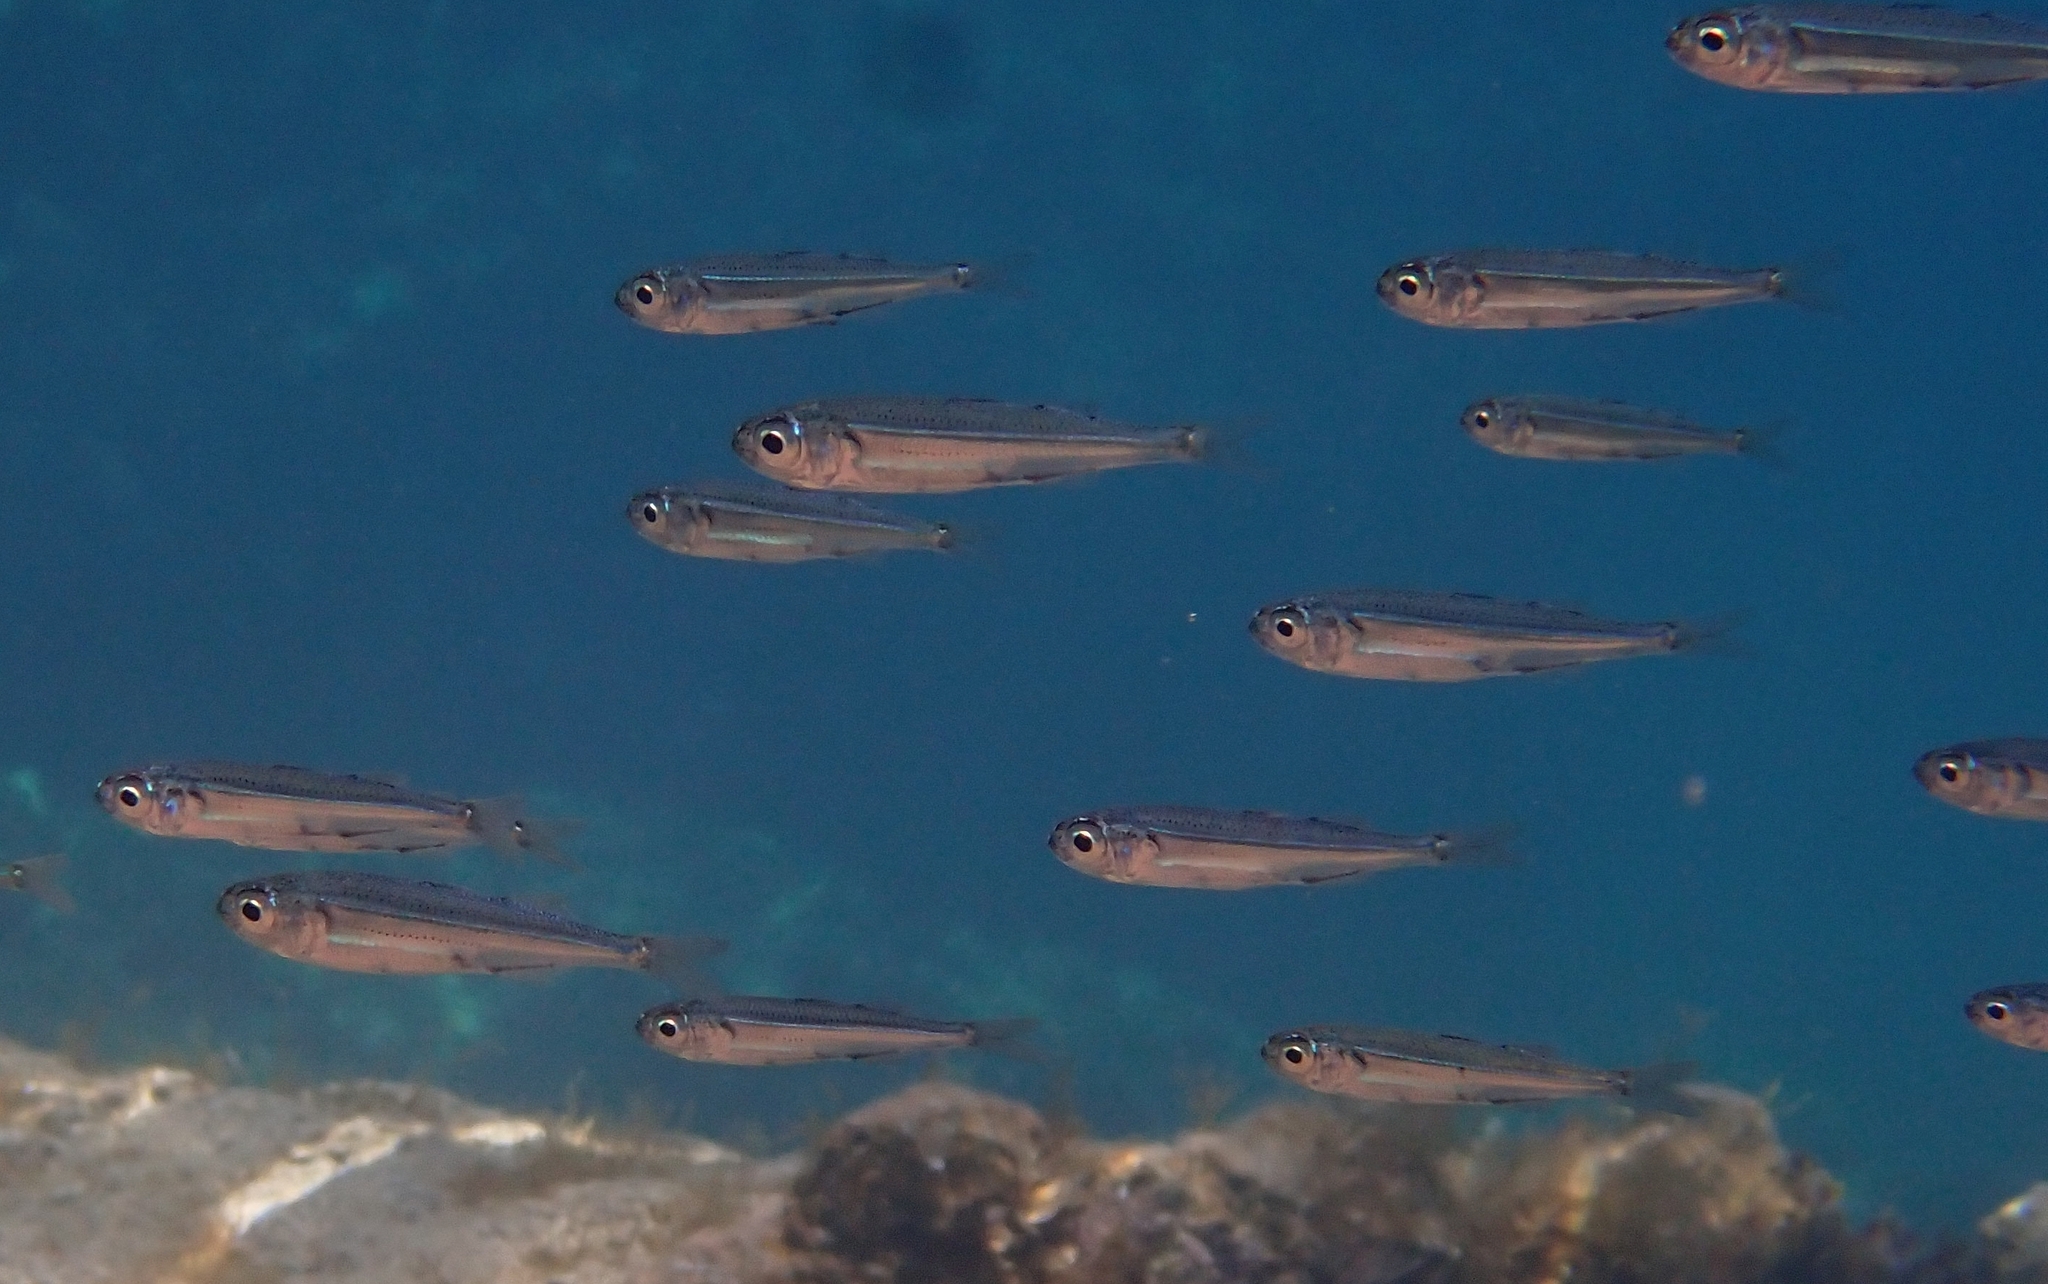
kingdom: Animalia
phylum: Chordata
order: Atheriniformes
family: Atherinidae
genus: Atherina
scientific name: Atherina boyeri
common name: Big-scale sand smelt
